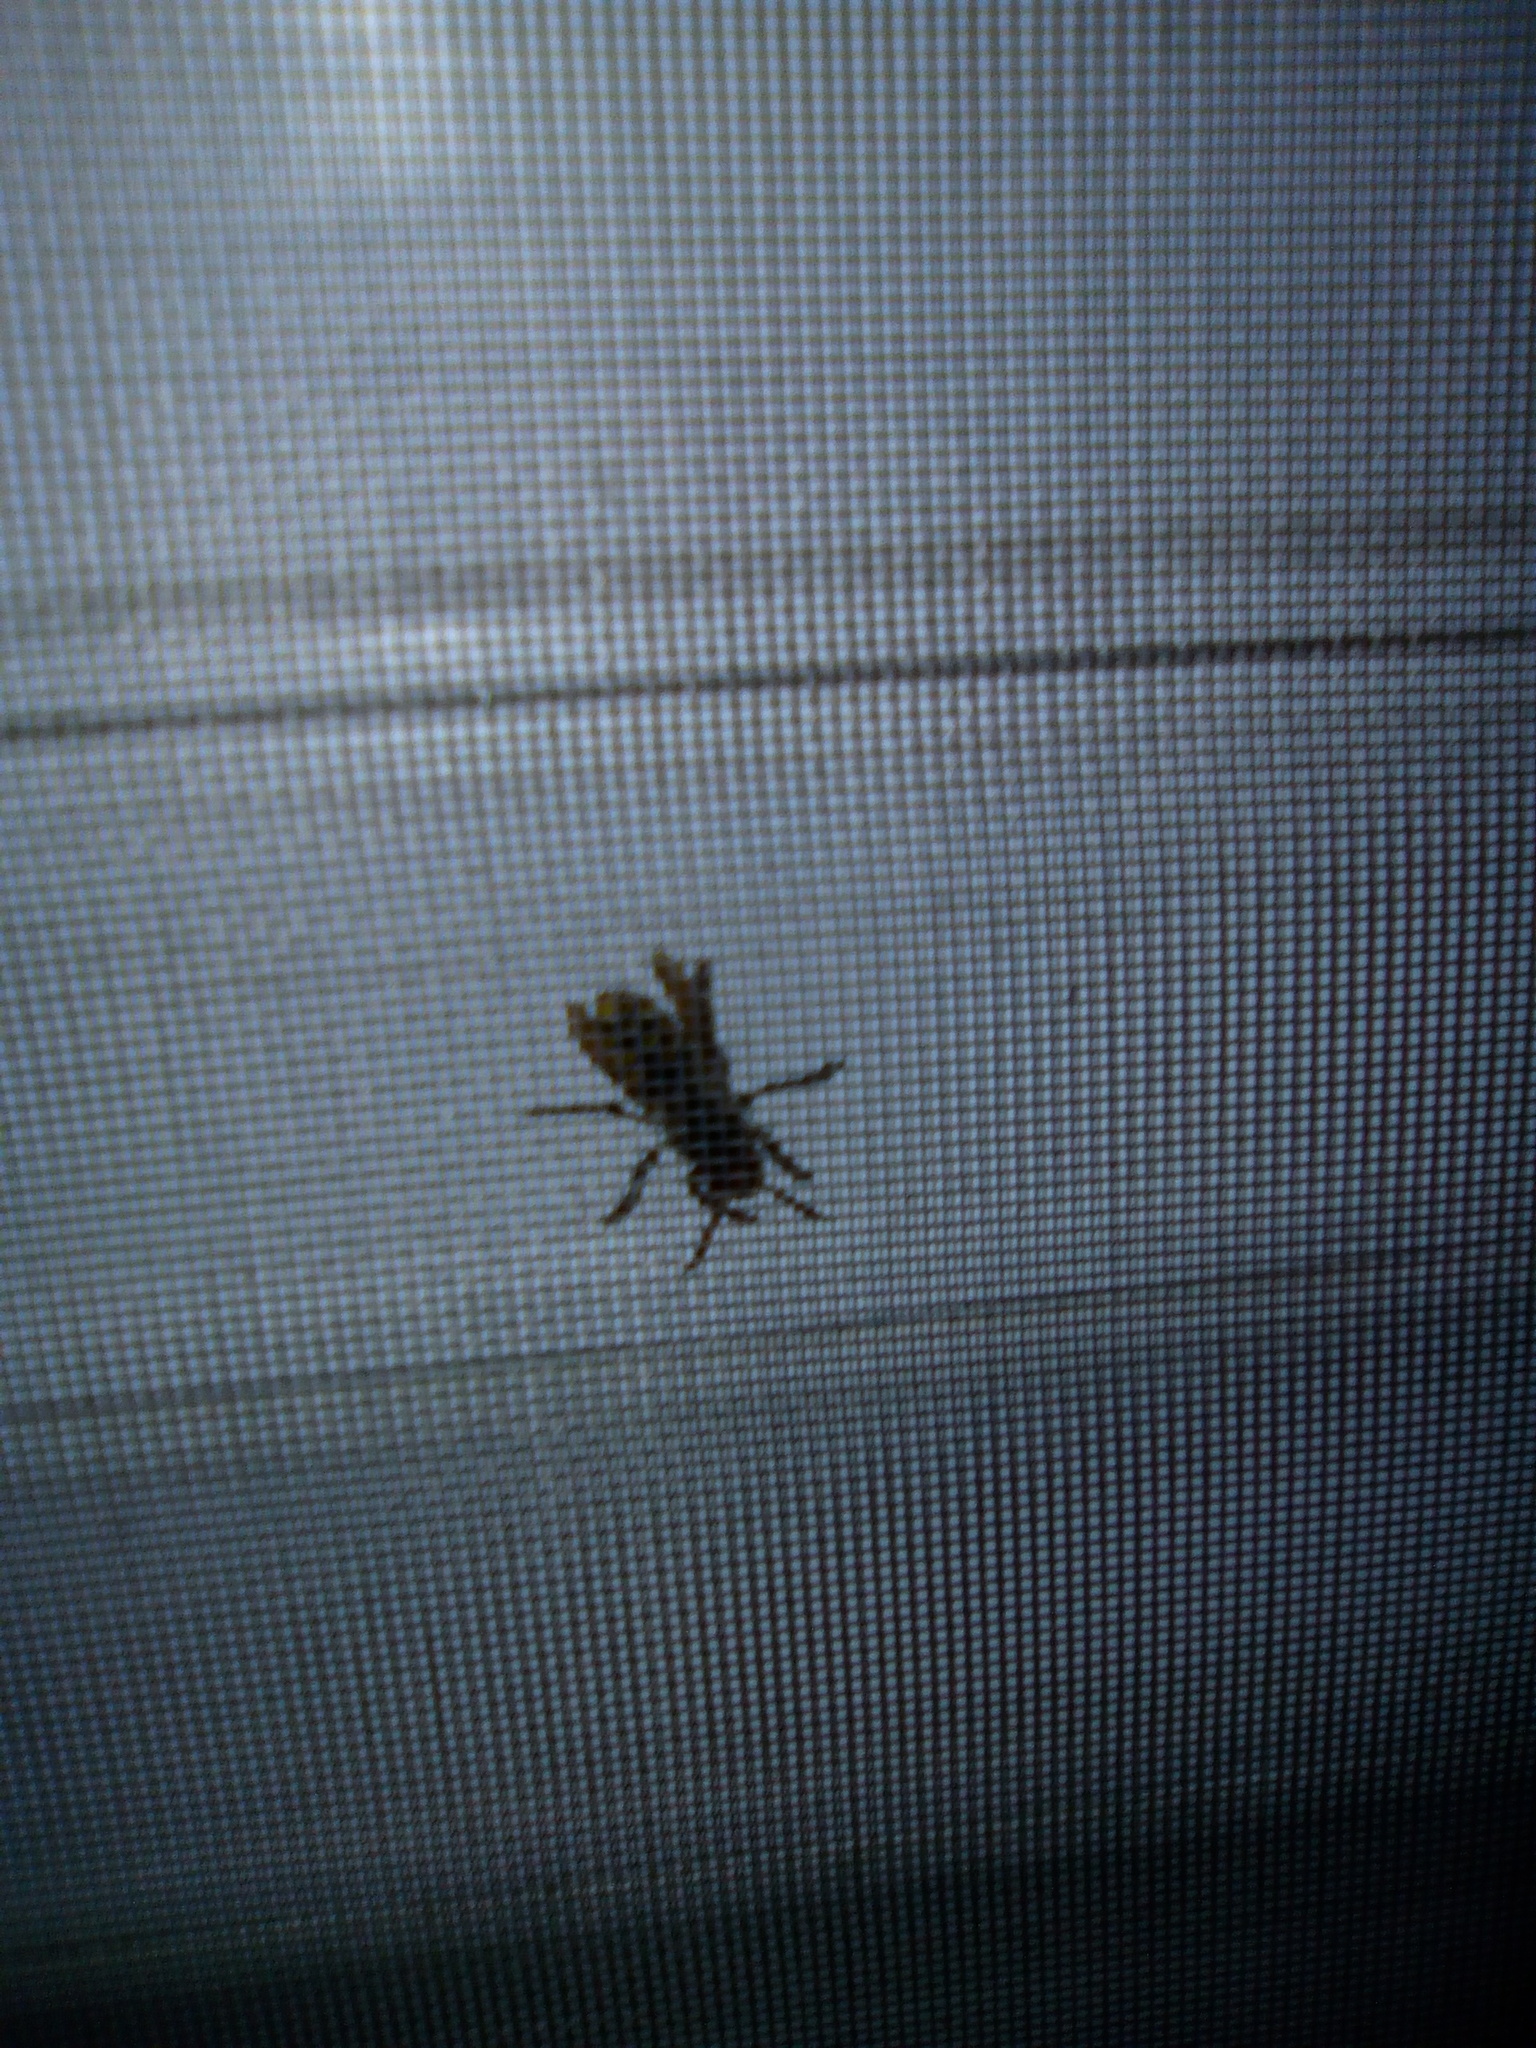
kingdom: Animalia
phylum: Arthropoda
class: Insecta
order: Hymenoptera
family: Vespidae
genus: Vespa
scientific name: Vespa crabro
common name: Hornet
